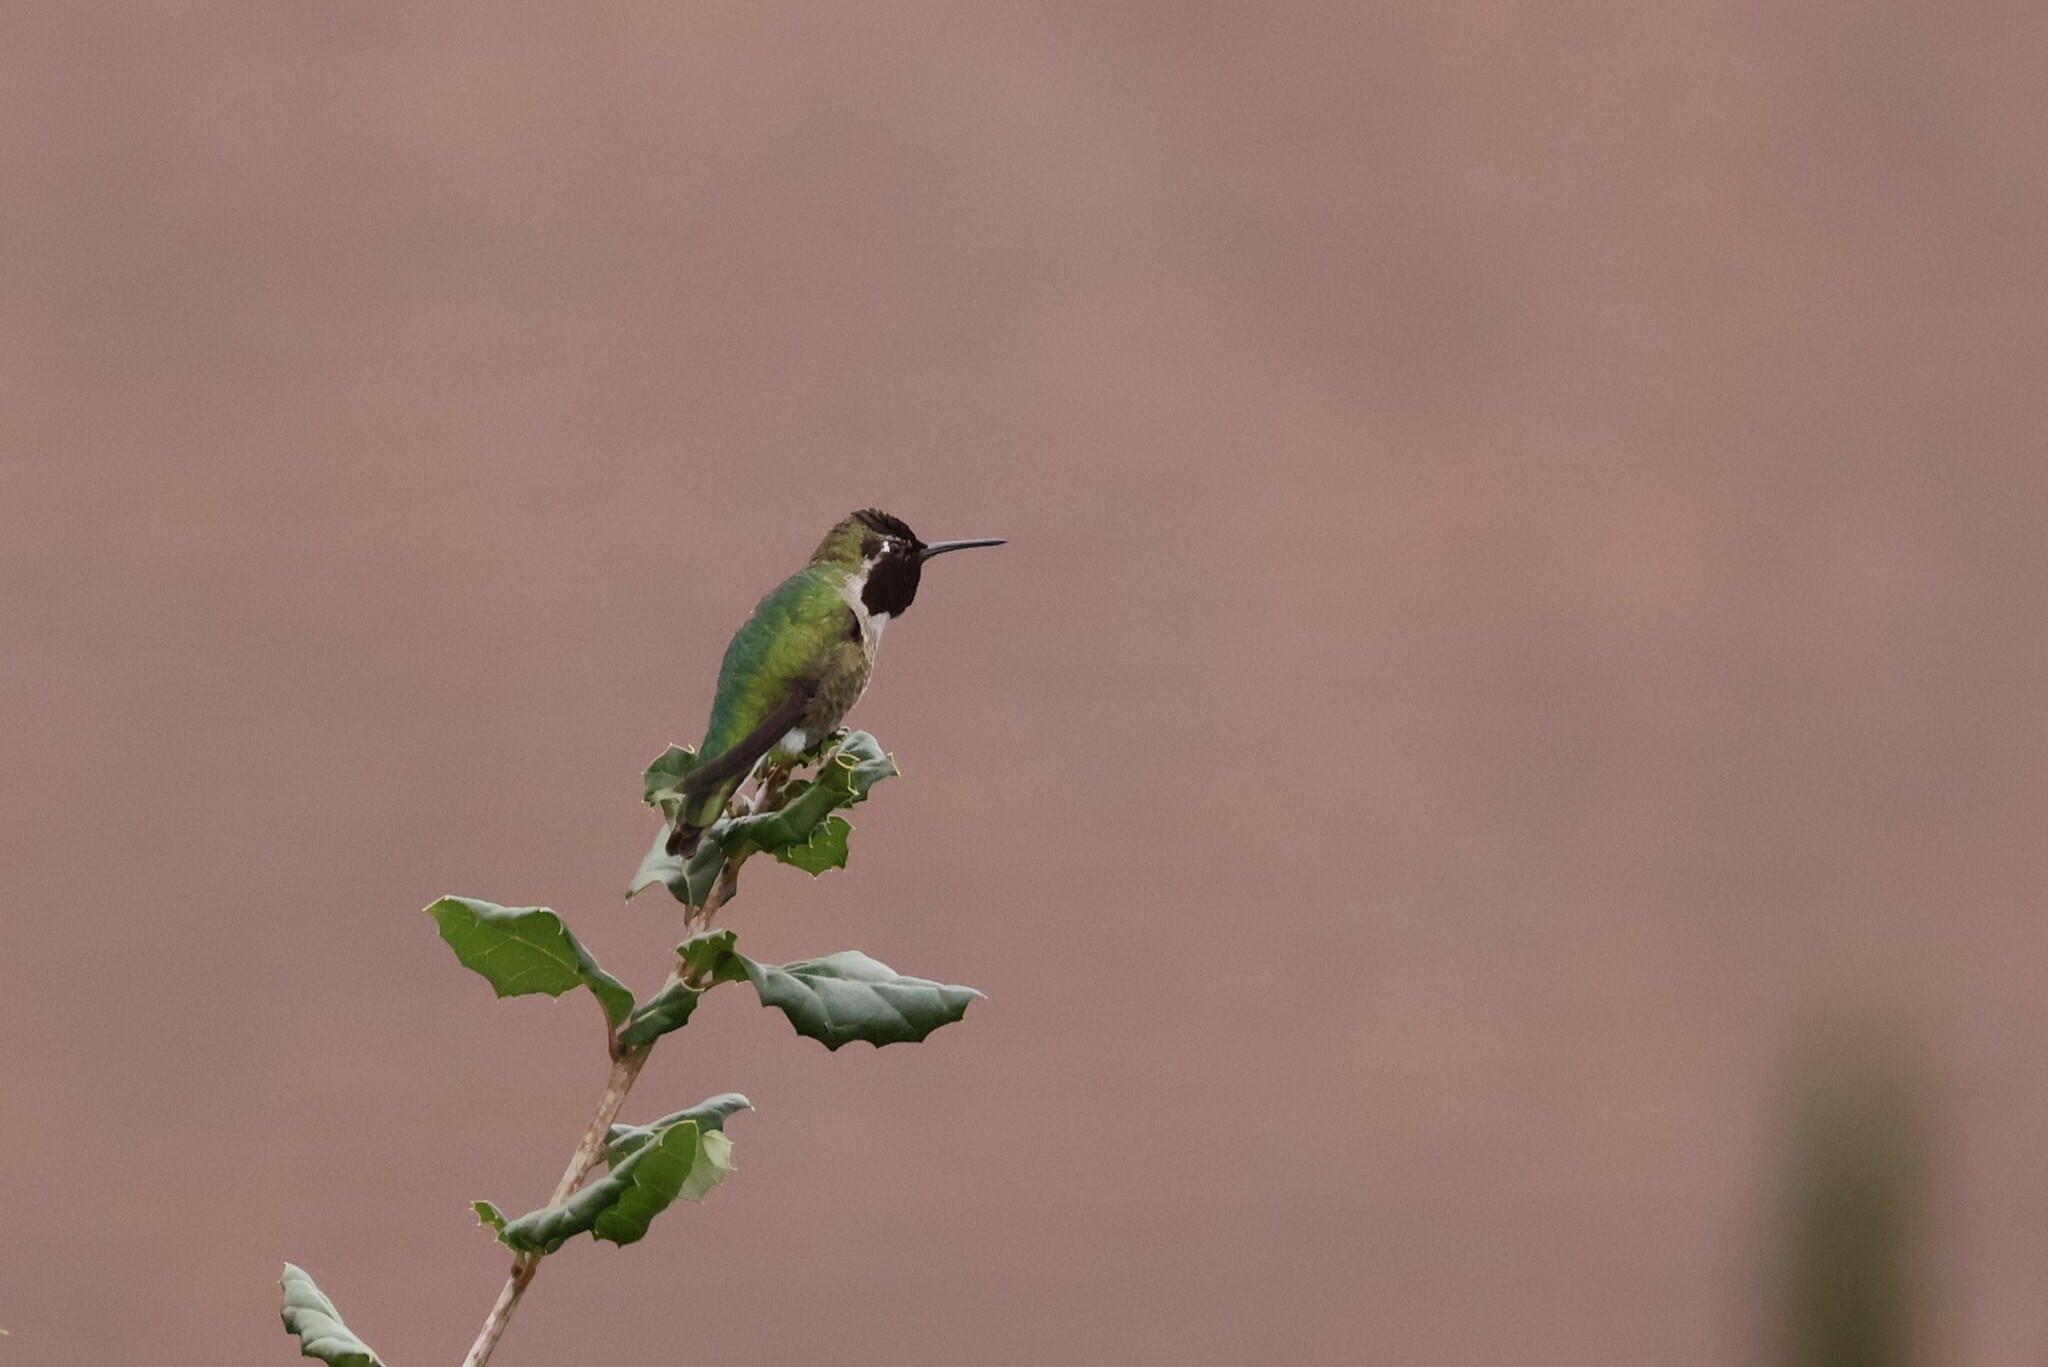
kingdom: Animalia
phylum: Chordata
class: Aves
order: Apodiformes
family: Trochilidae
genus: Calypte
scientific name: Calypte anna
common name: Anna's hummingbird
